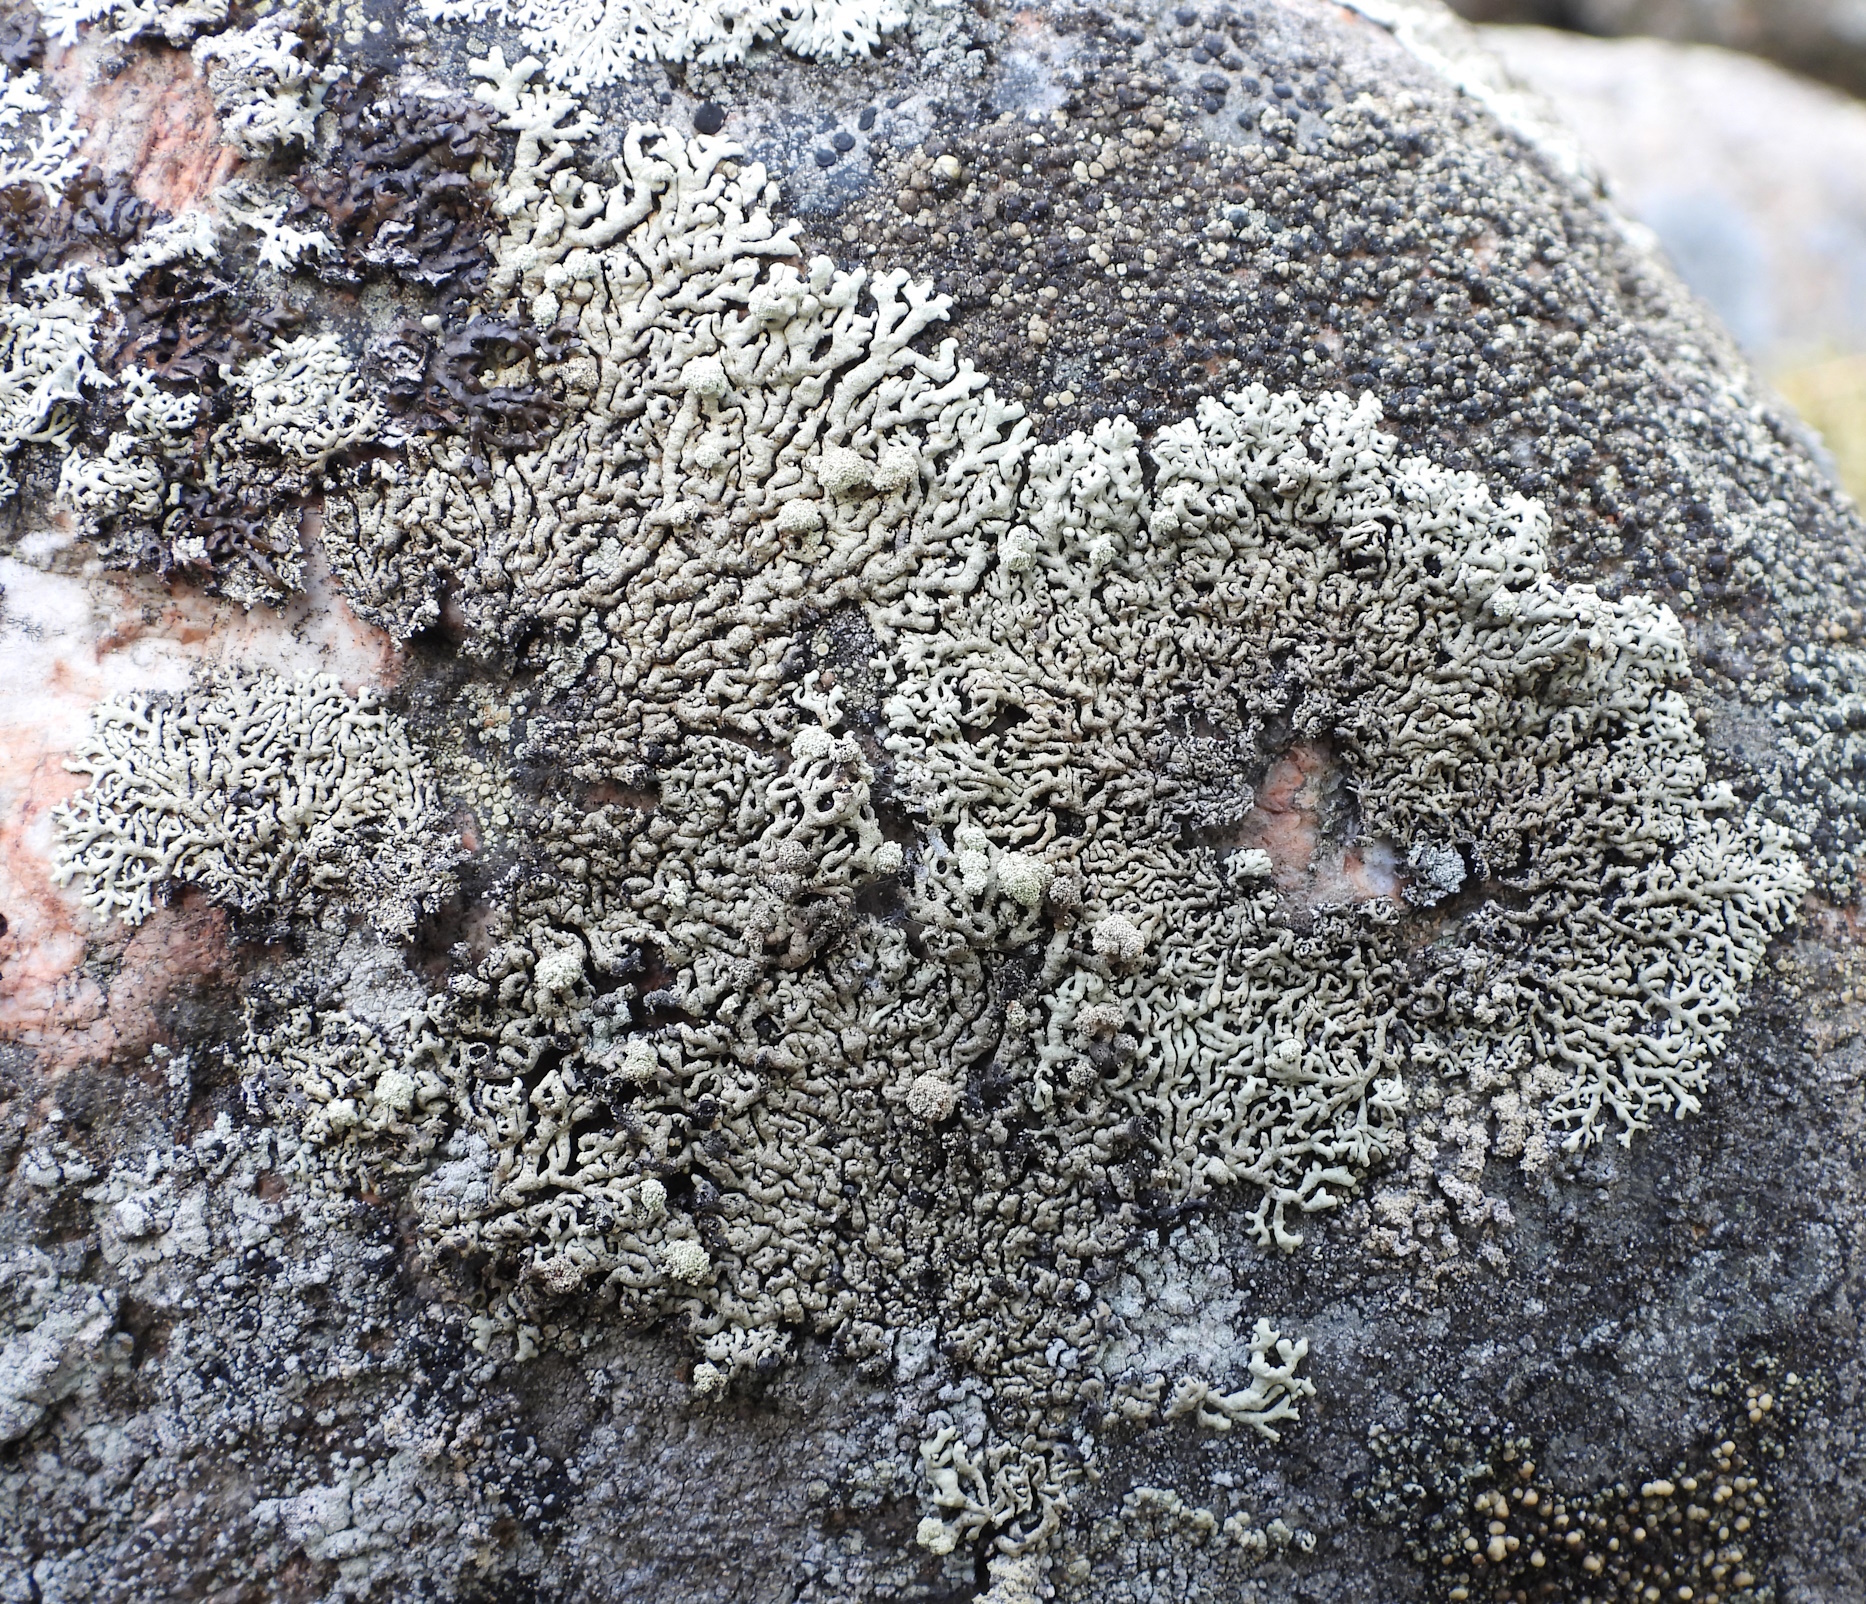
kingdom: Fungi
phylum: Ascomycota
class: Lecanoromycetes
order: Lecanorales
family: Parmeliaceae
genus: Arctoparmelia
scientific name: Arctoparmelia incurva
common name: Bent ring lichen
